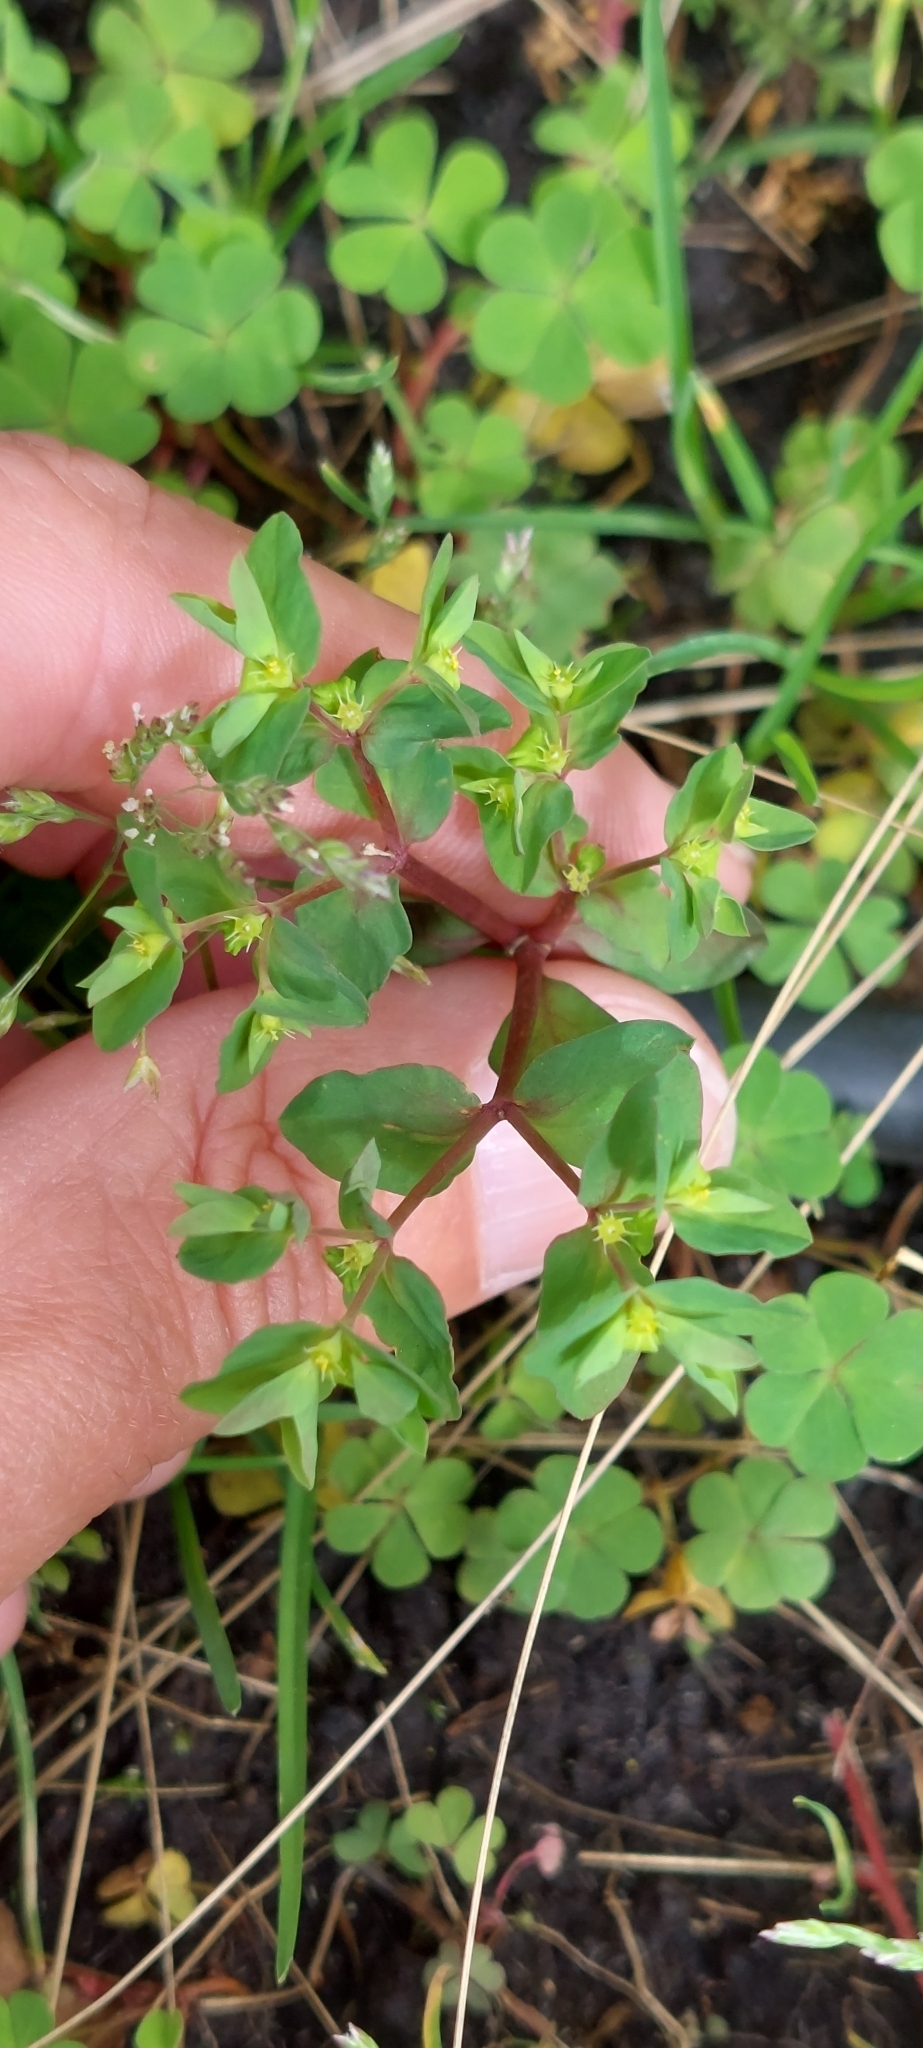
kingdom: Plantae
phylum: Tracheophyta
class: Magnoliopsida
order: Malpighiales
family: Euphorbiaceae
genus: Euphorbia
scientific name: Euphorbia peplus
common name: Petty spurge
